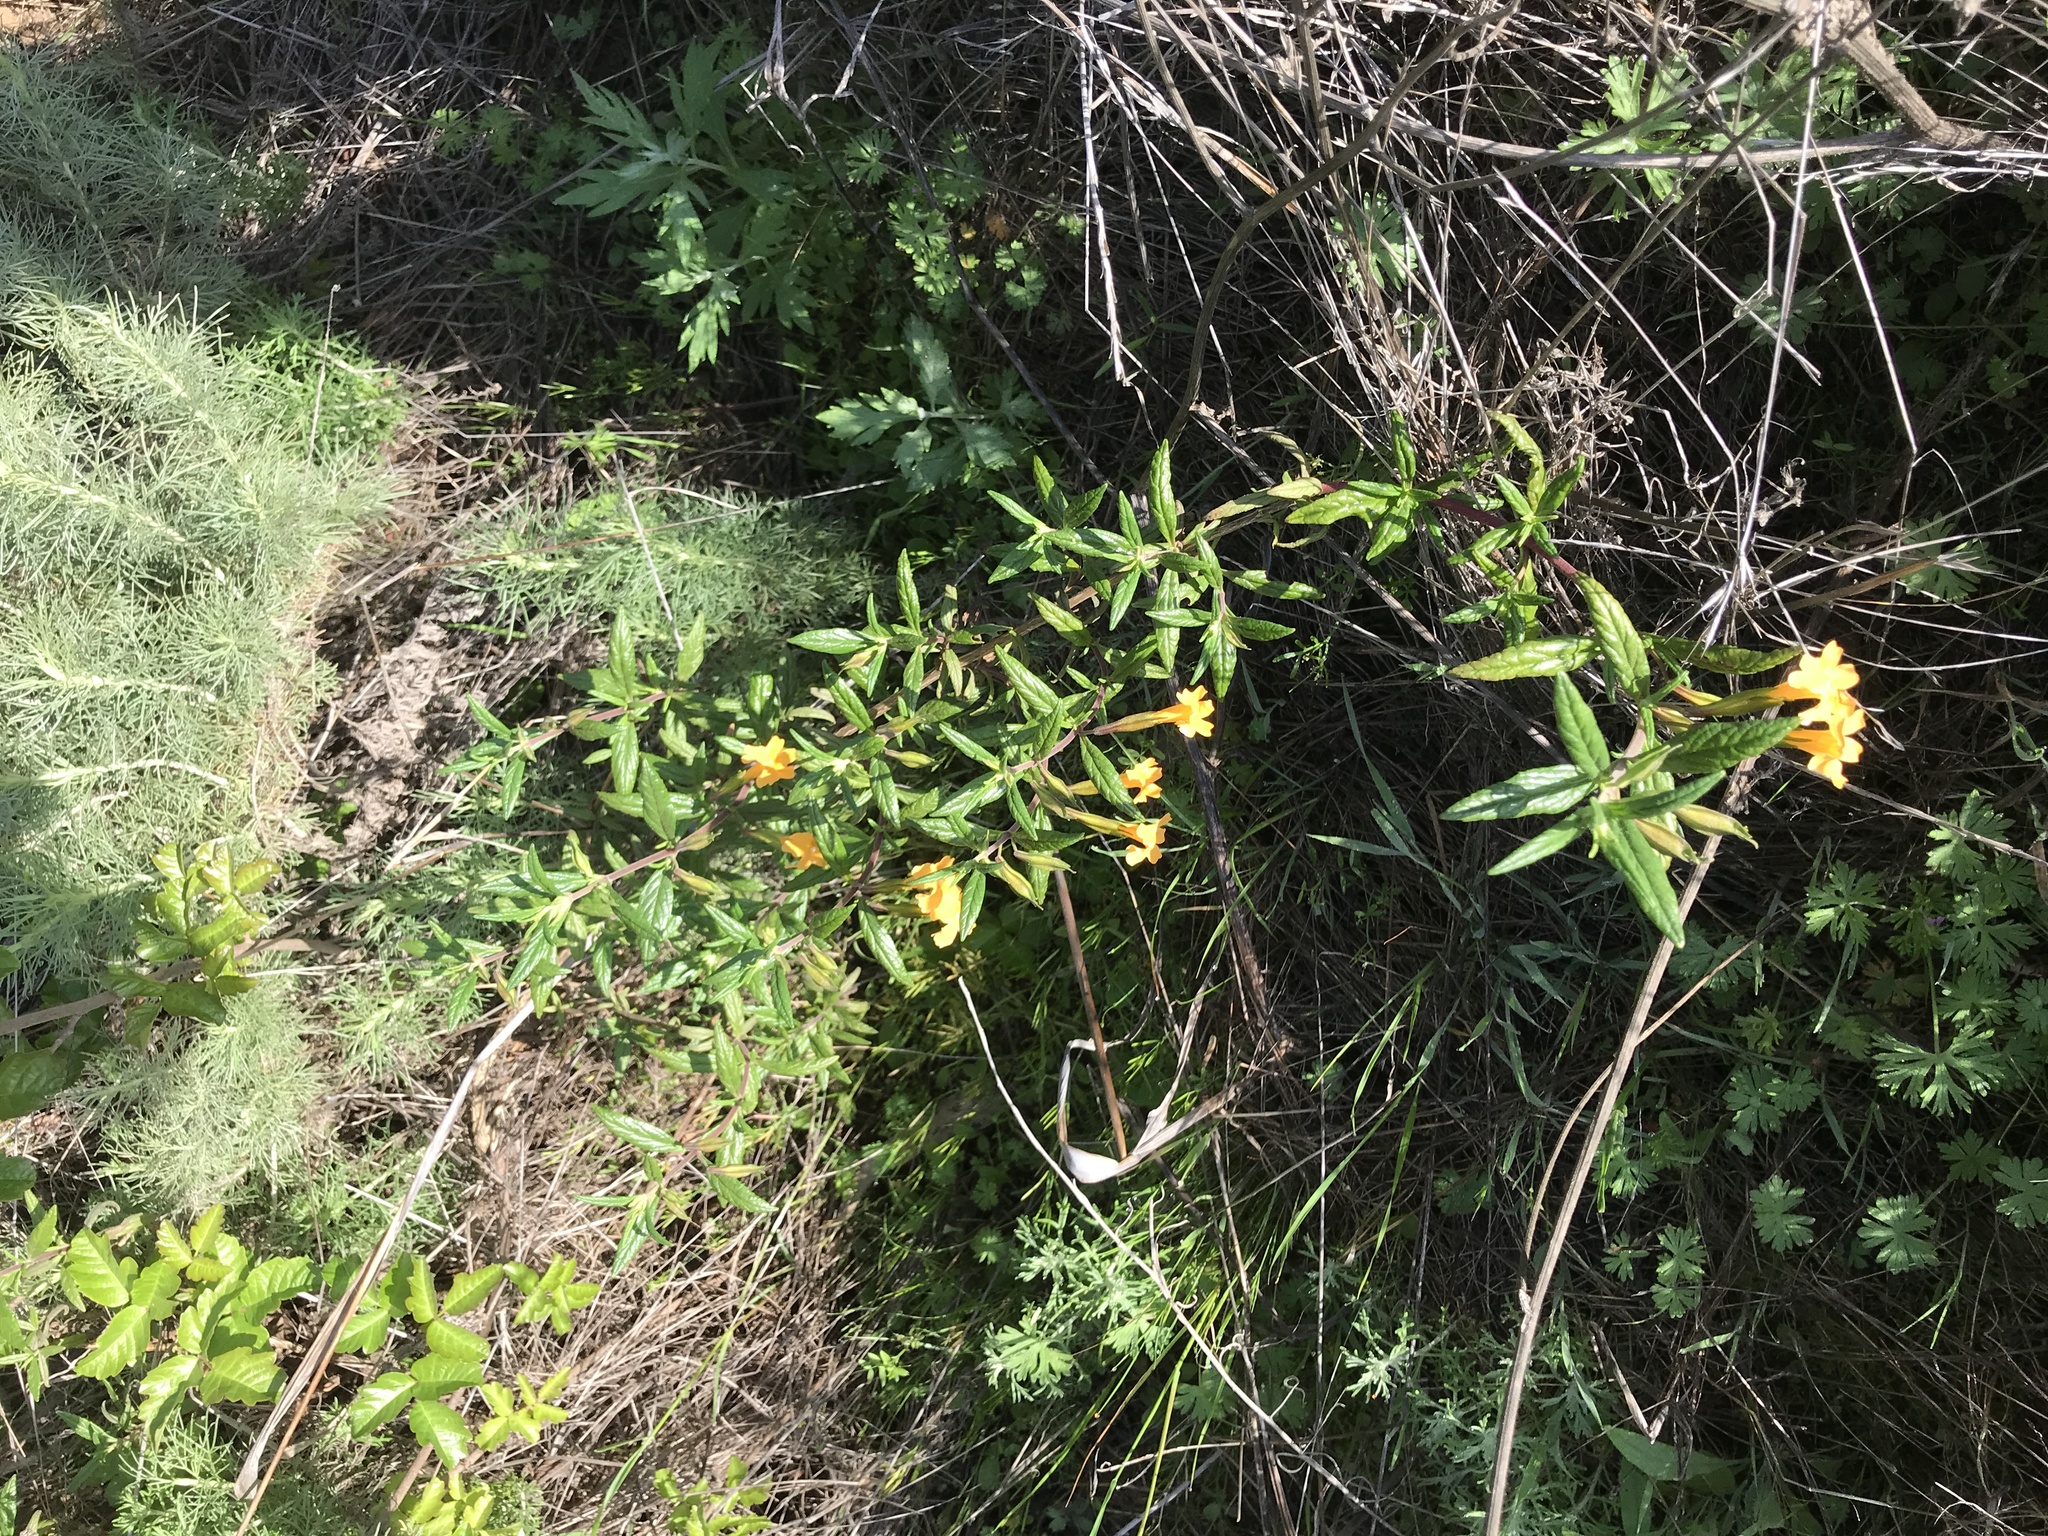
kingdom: Plantae
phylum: Tracheophyta
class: Magnoliopsida
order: Lamiales
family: Phrymaceae
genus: Diplacus
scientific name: Diplacus aurantiacus
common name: Bush monkey-flower
